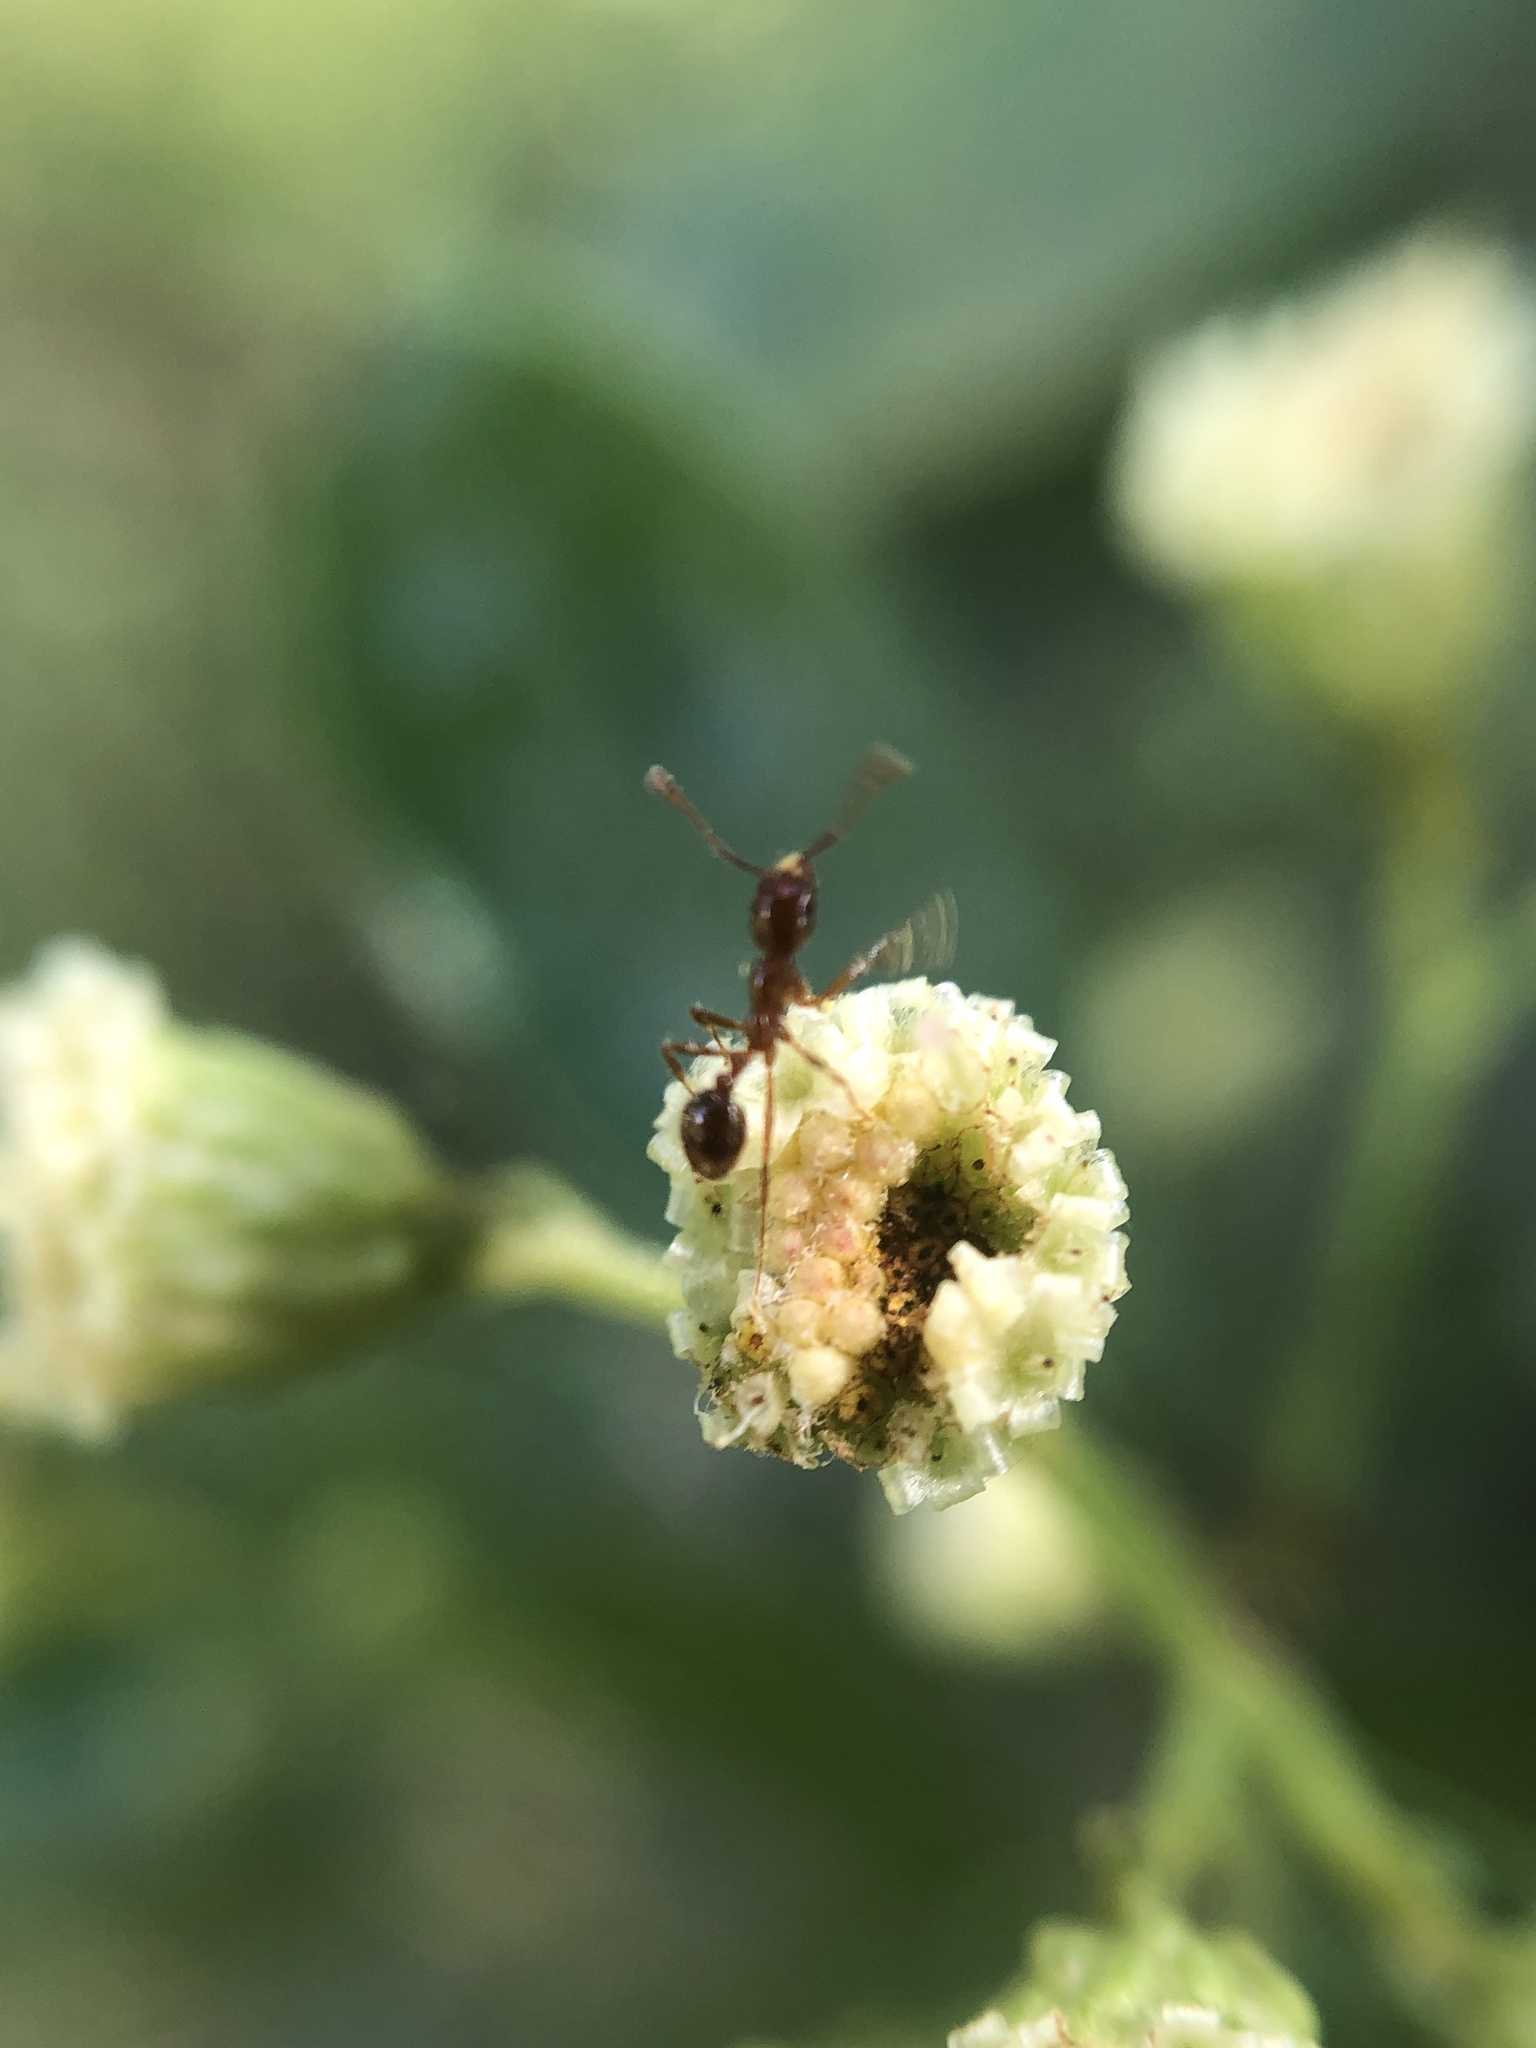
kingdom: Animalia
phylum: Arthropoda
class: Insecta
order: Hymenoptera
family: Formicidae
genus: Solenopsis
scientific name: Solenopsis invicta
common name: Red imported fire ant
